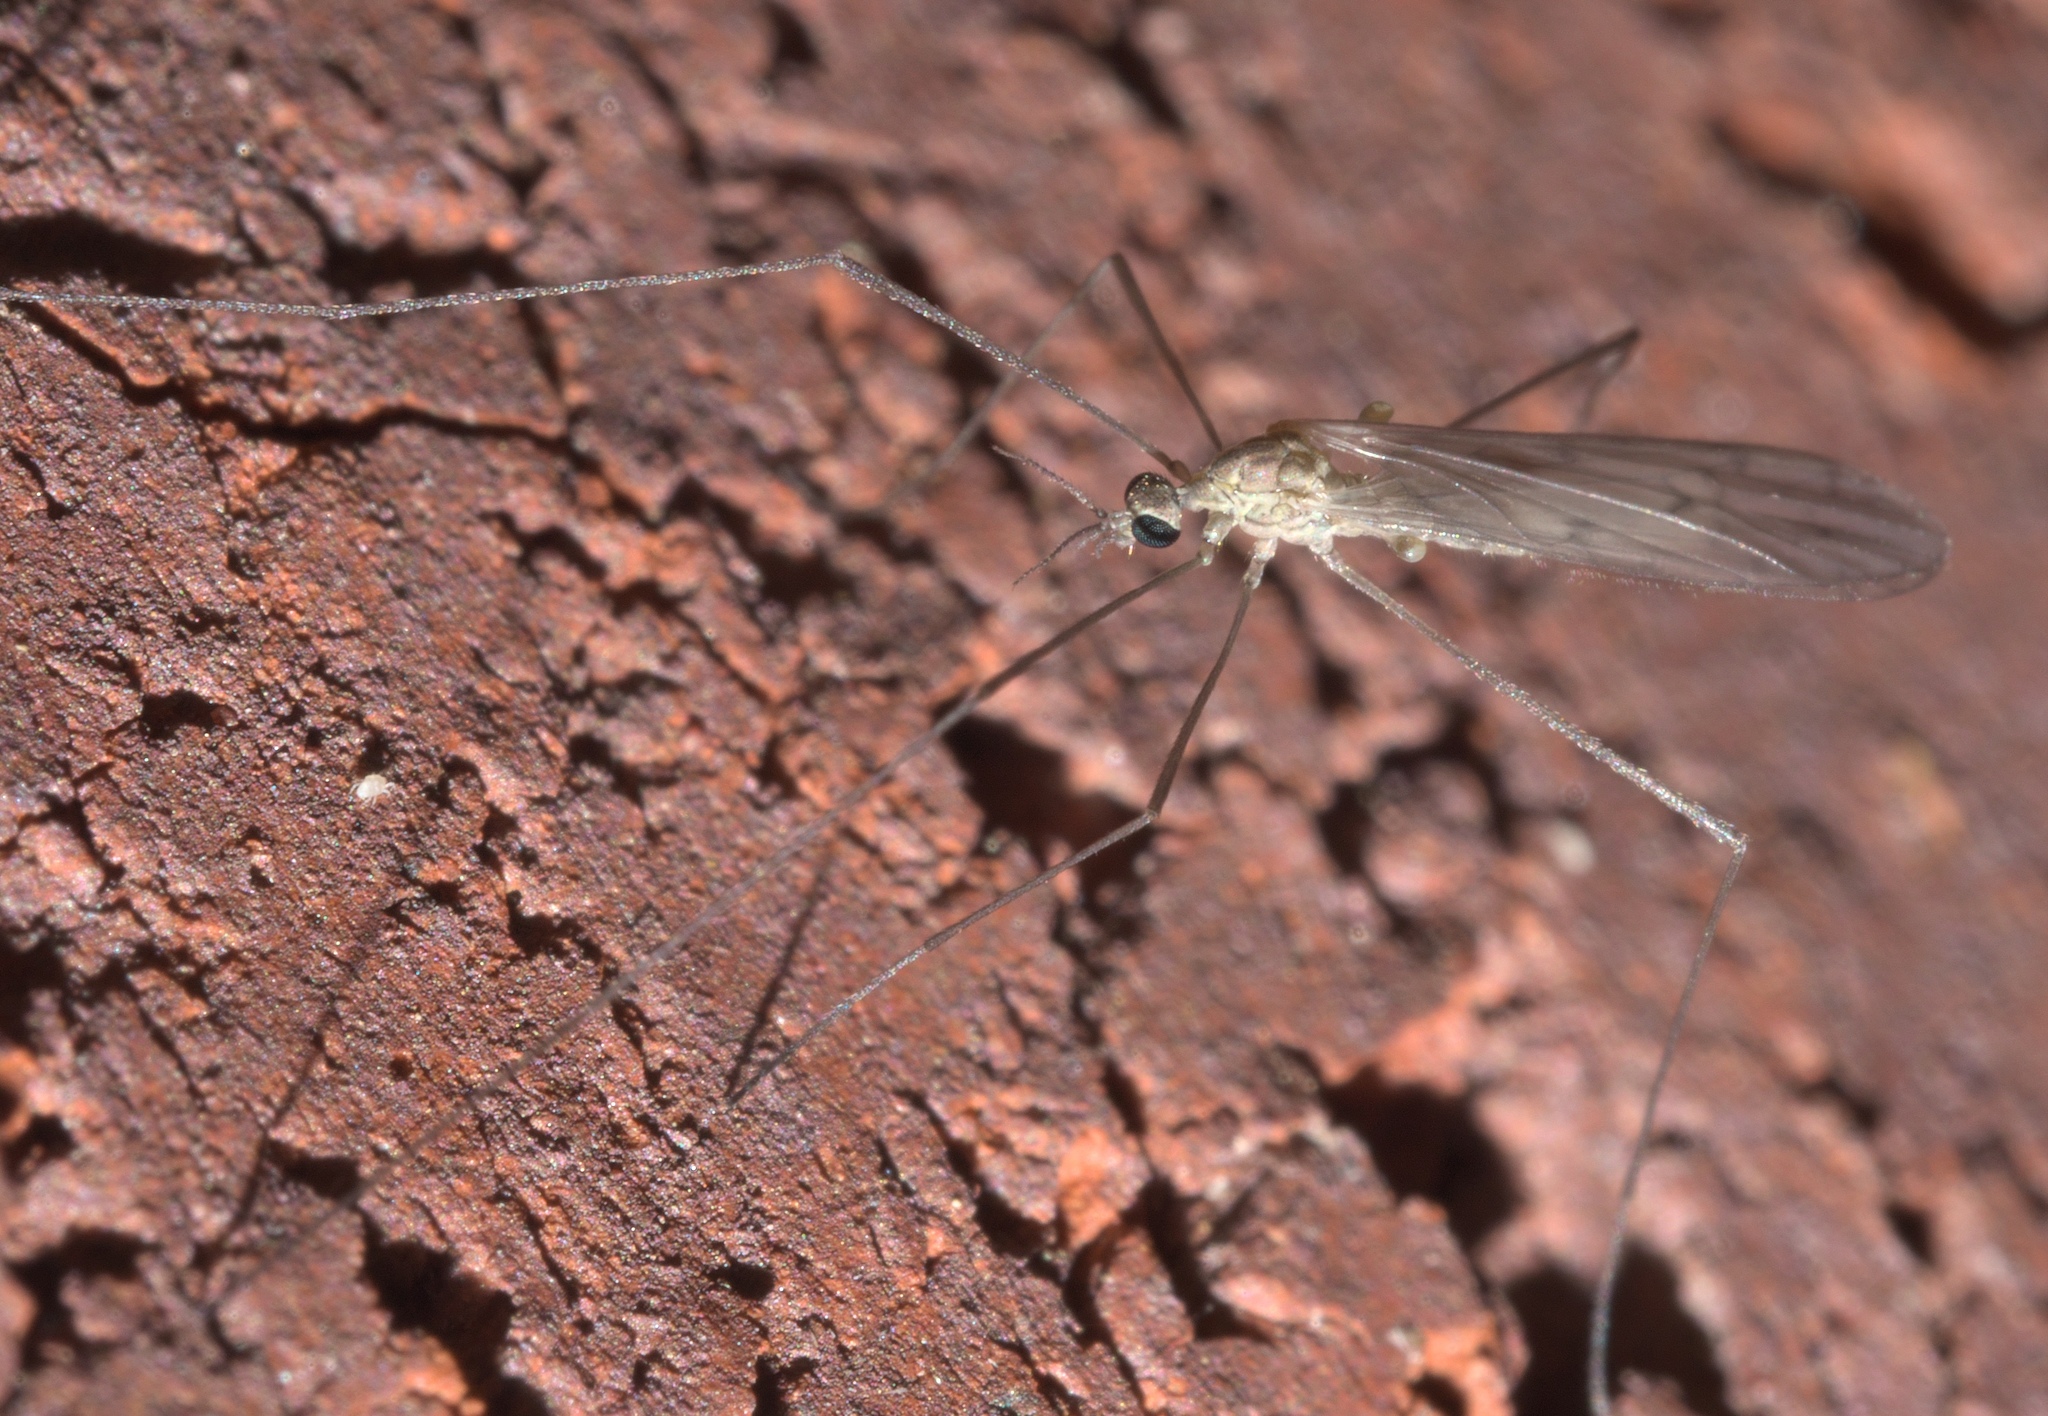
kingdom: Animalia
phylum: Arthropoda
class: Insecta
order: Diptera
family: Limoniidae
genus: Symplecta
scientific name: Symplecta cana
